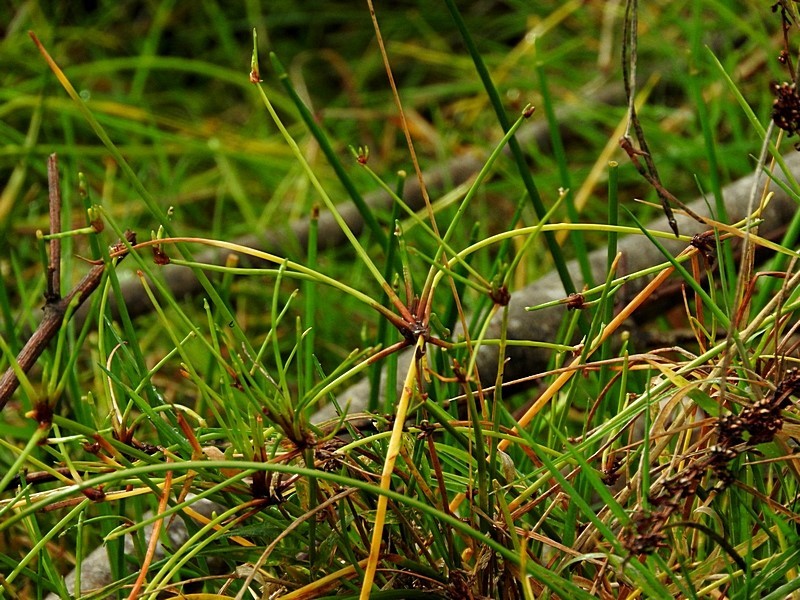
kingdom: Plantae
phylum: Tracheophyta
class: Liliopsida
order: Poales
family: Cyperaceae
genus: Isolepis
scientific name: Isolepis prolifera
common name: Proliferating bulrush
